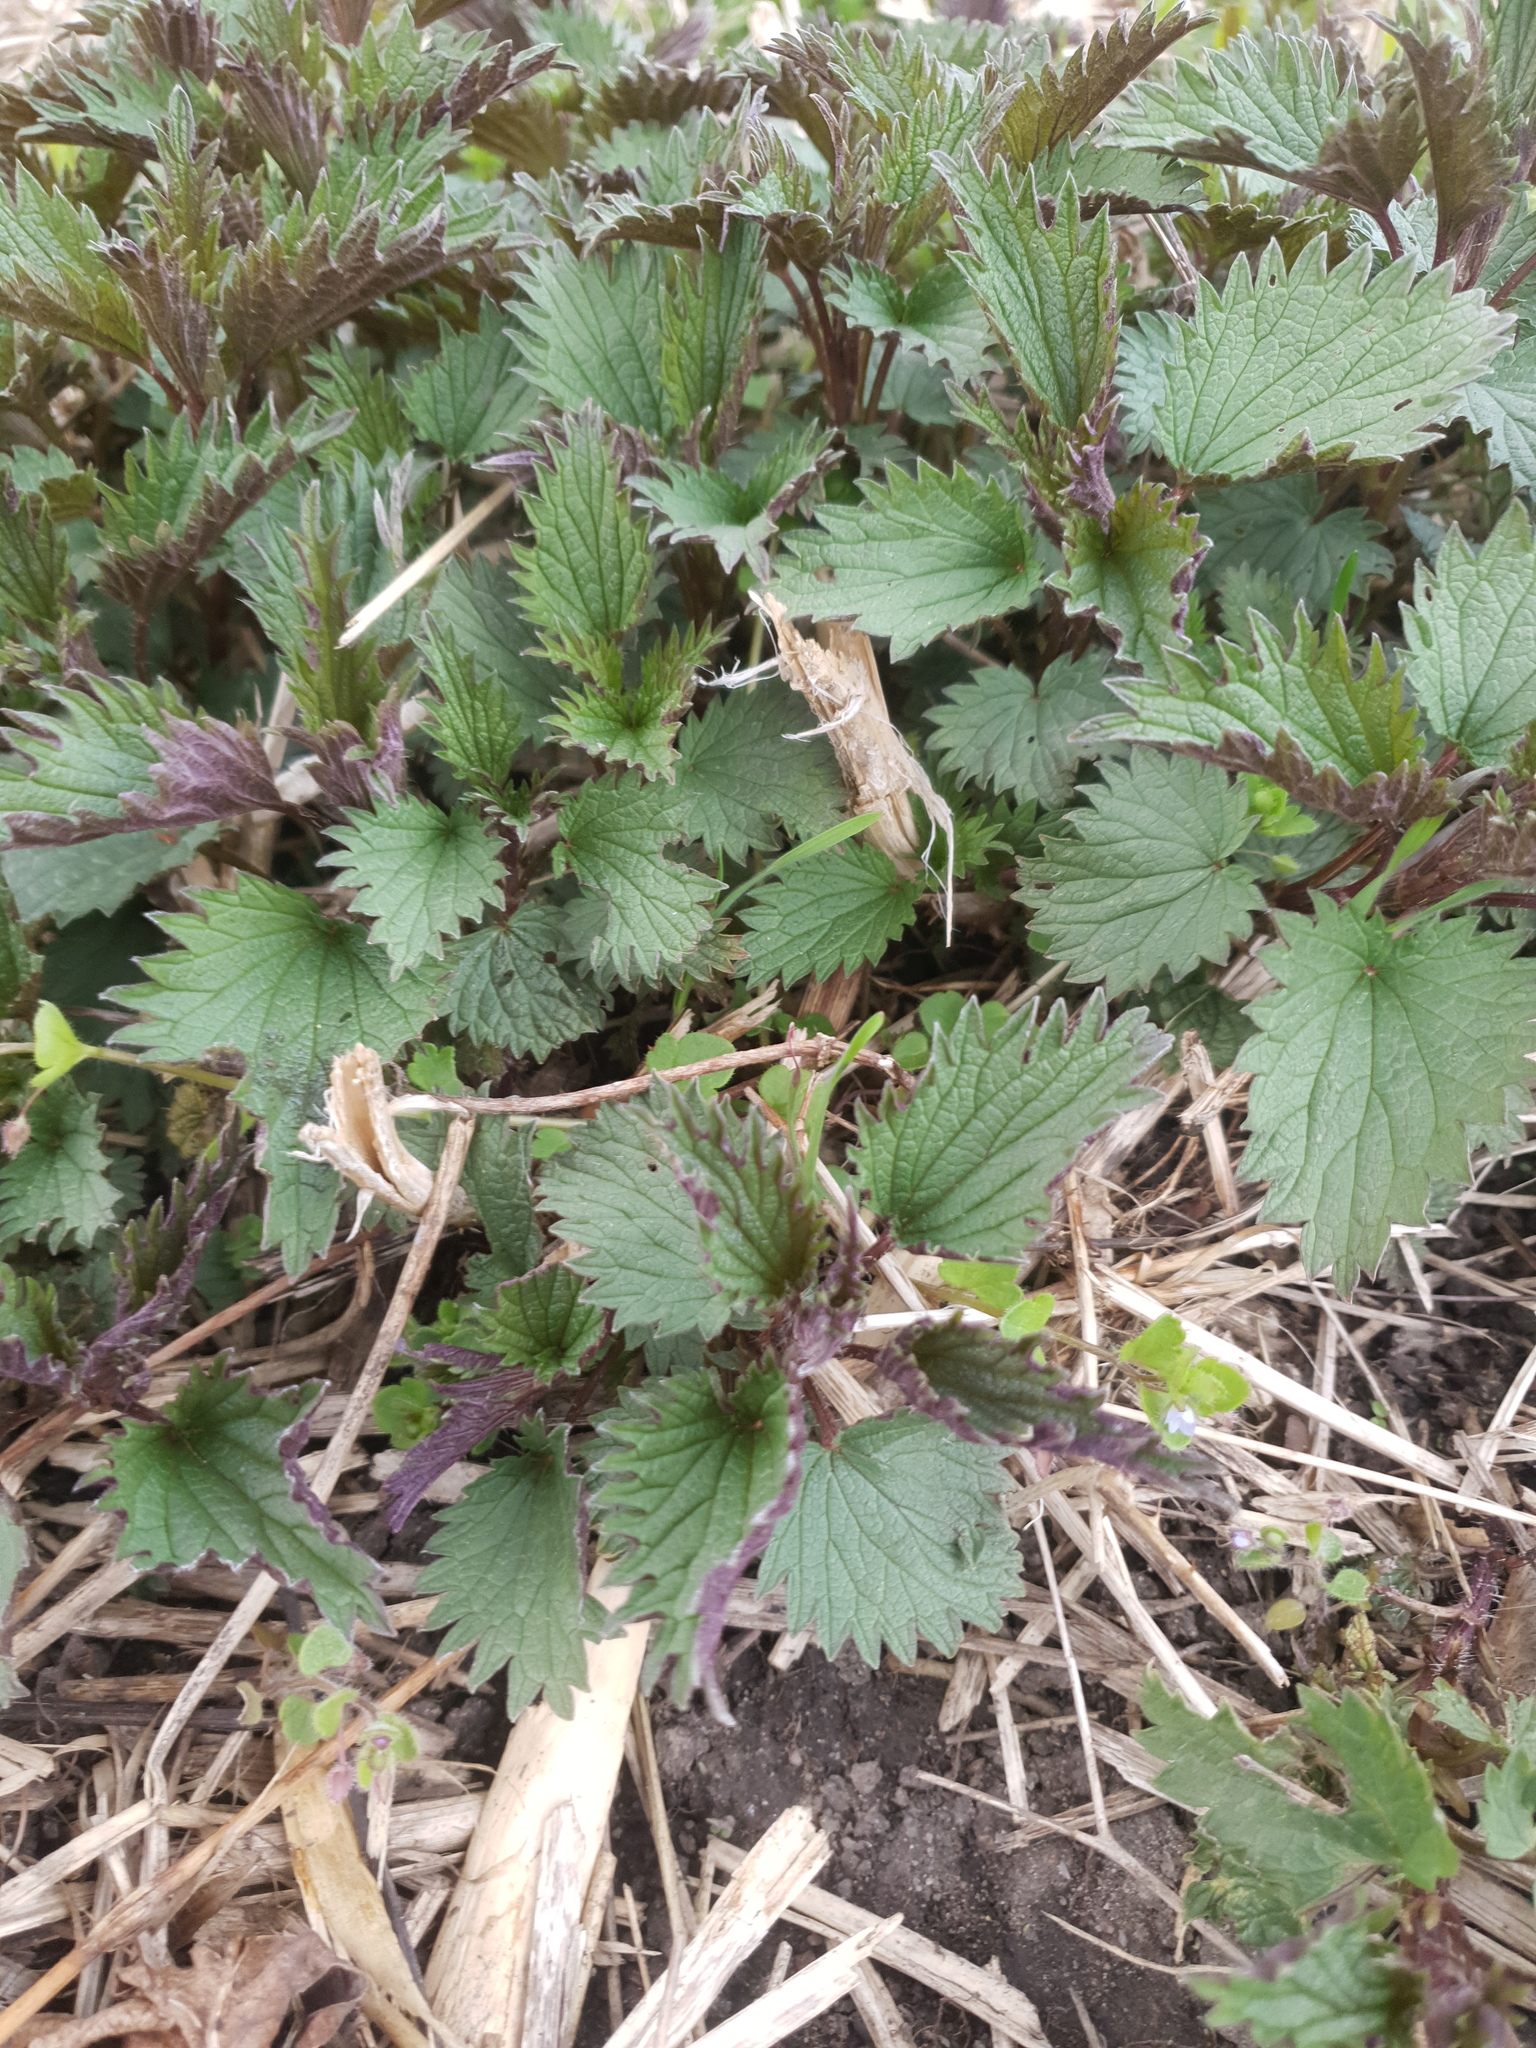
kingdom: Plantae
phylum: Tracheophyta
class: Magnoliopsida
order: Rosales
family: Urticaceae
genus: Urtica
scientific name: Urtica dioica
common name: Common nettle
